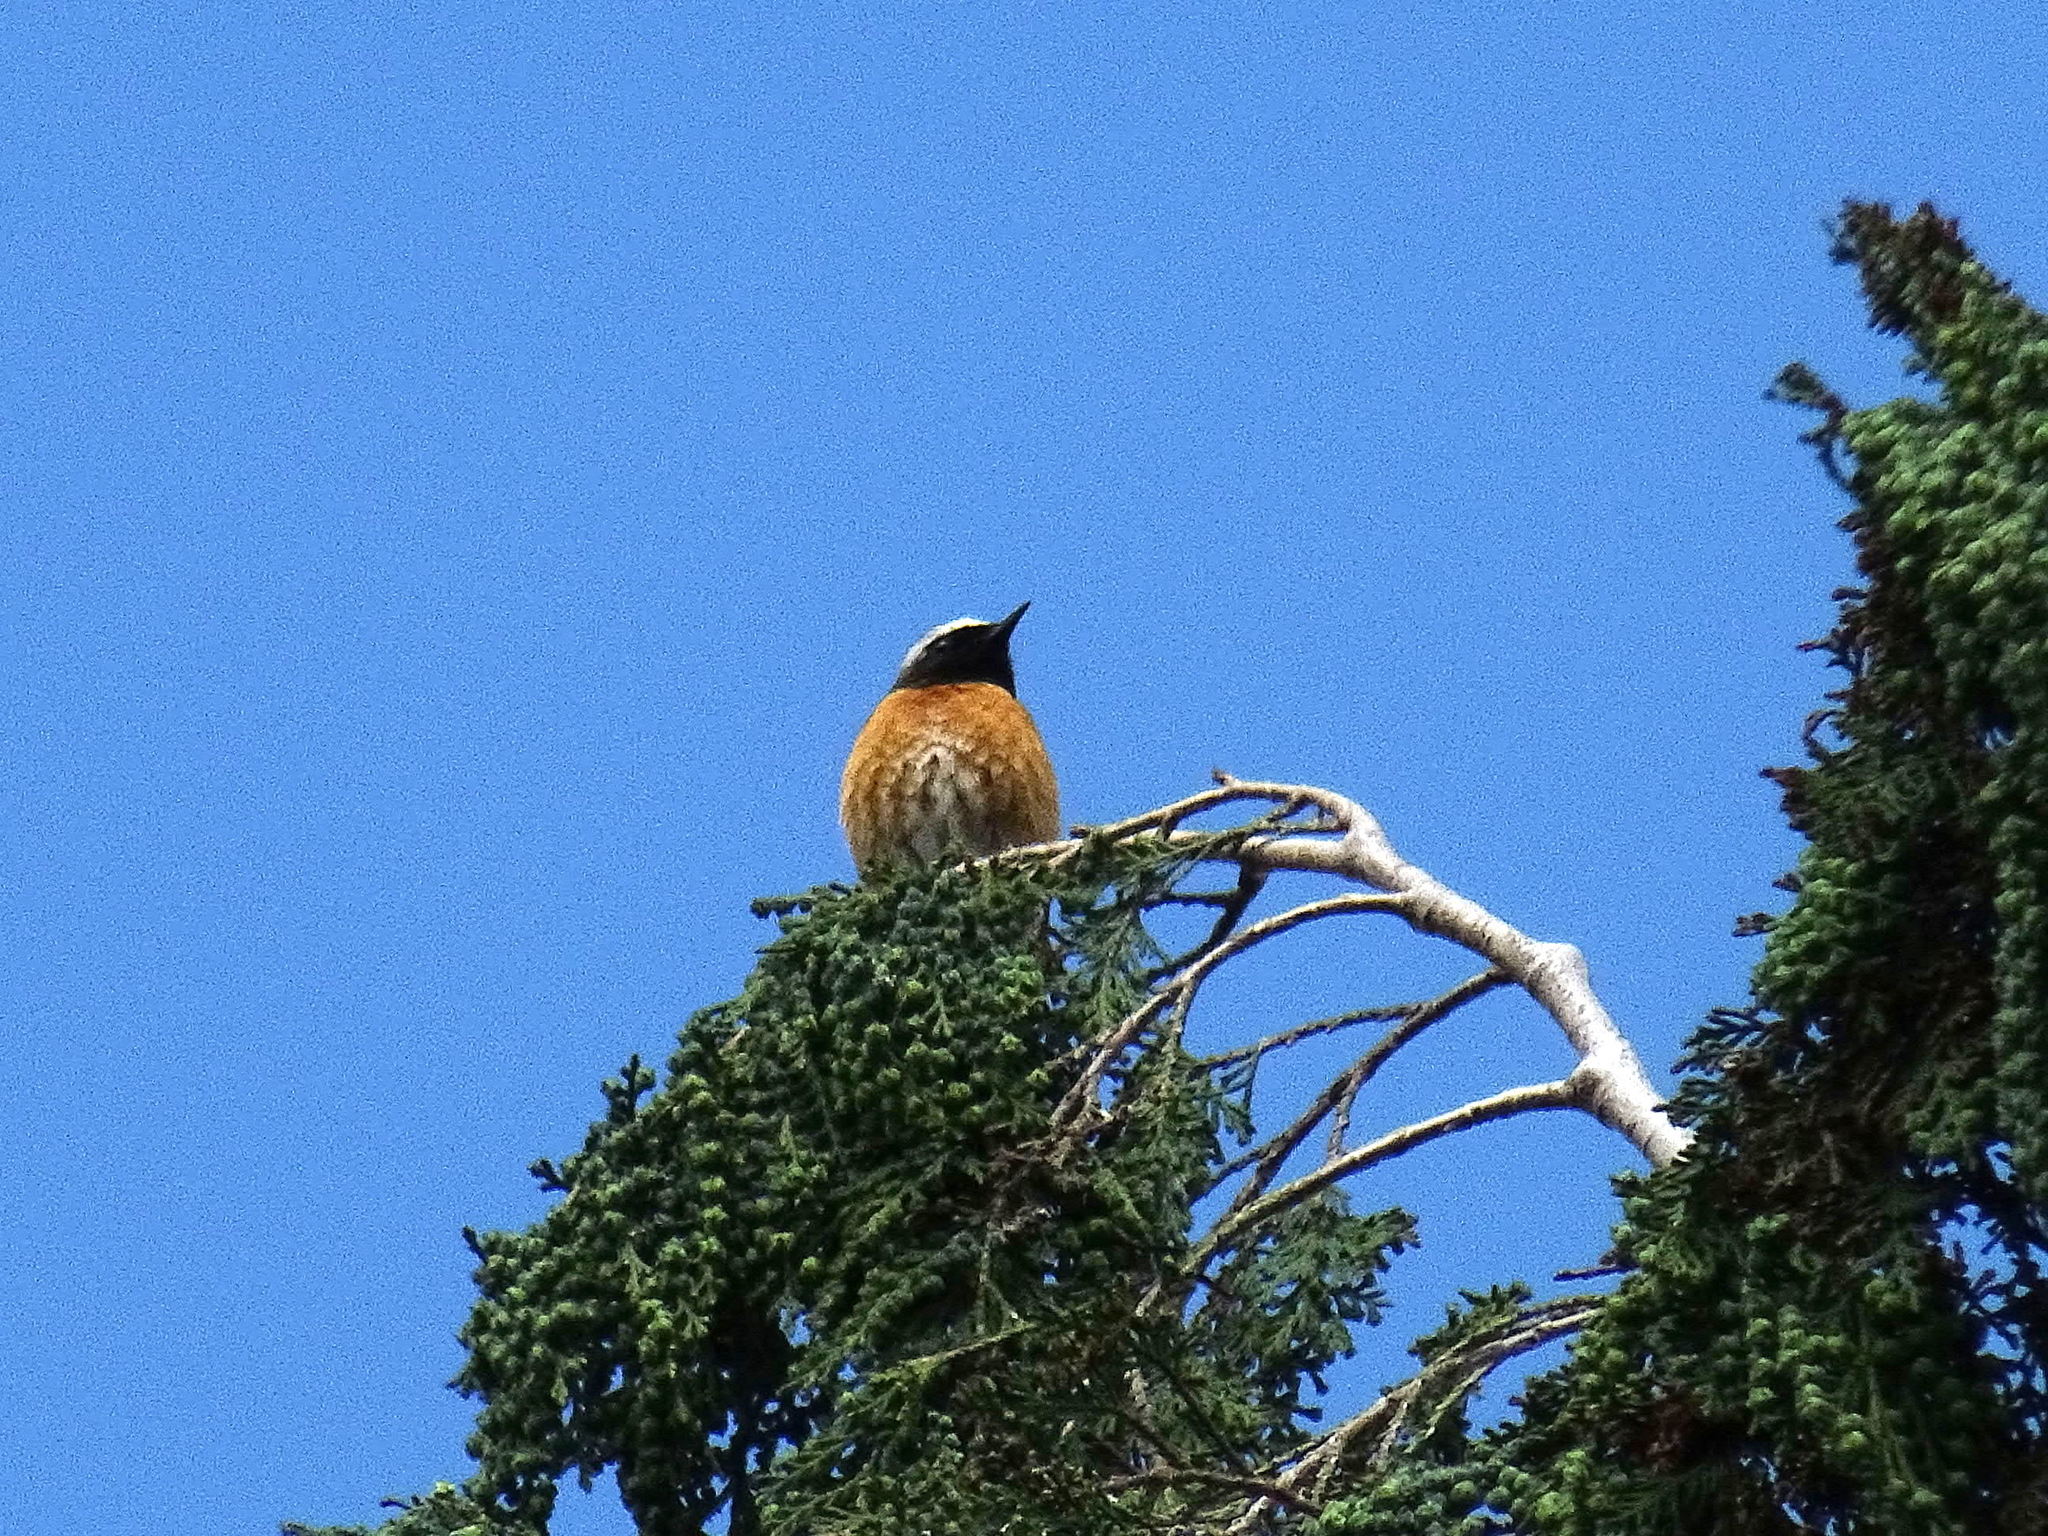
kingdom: Animalia
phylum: Chordata
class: Aves
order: Passeriformes
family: Muscicapidae
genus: Phoenicurus
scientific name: Phoenicurus phoenicurus
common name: Common redstart
